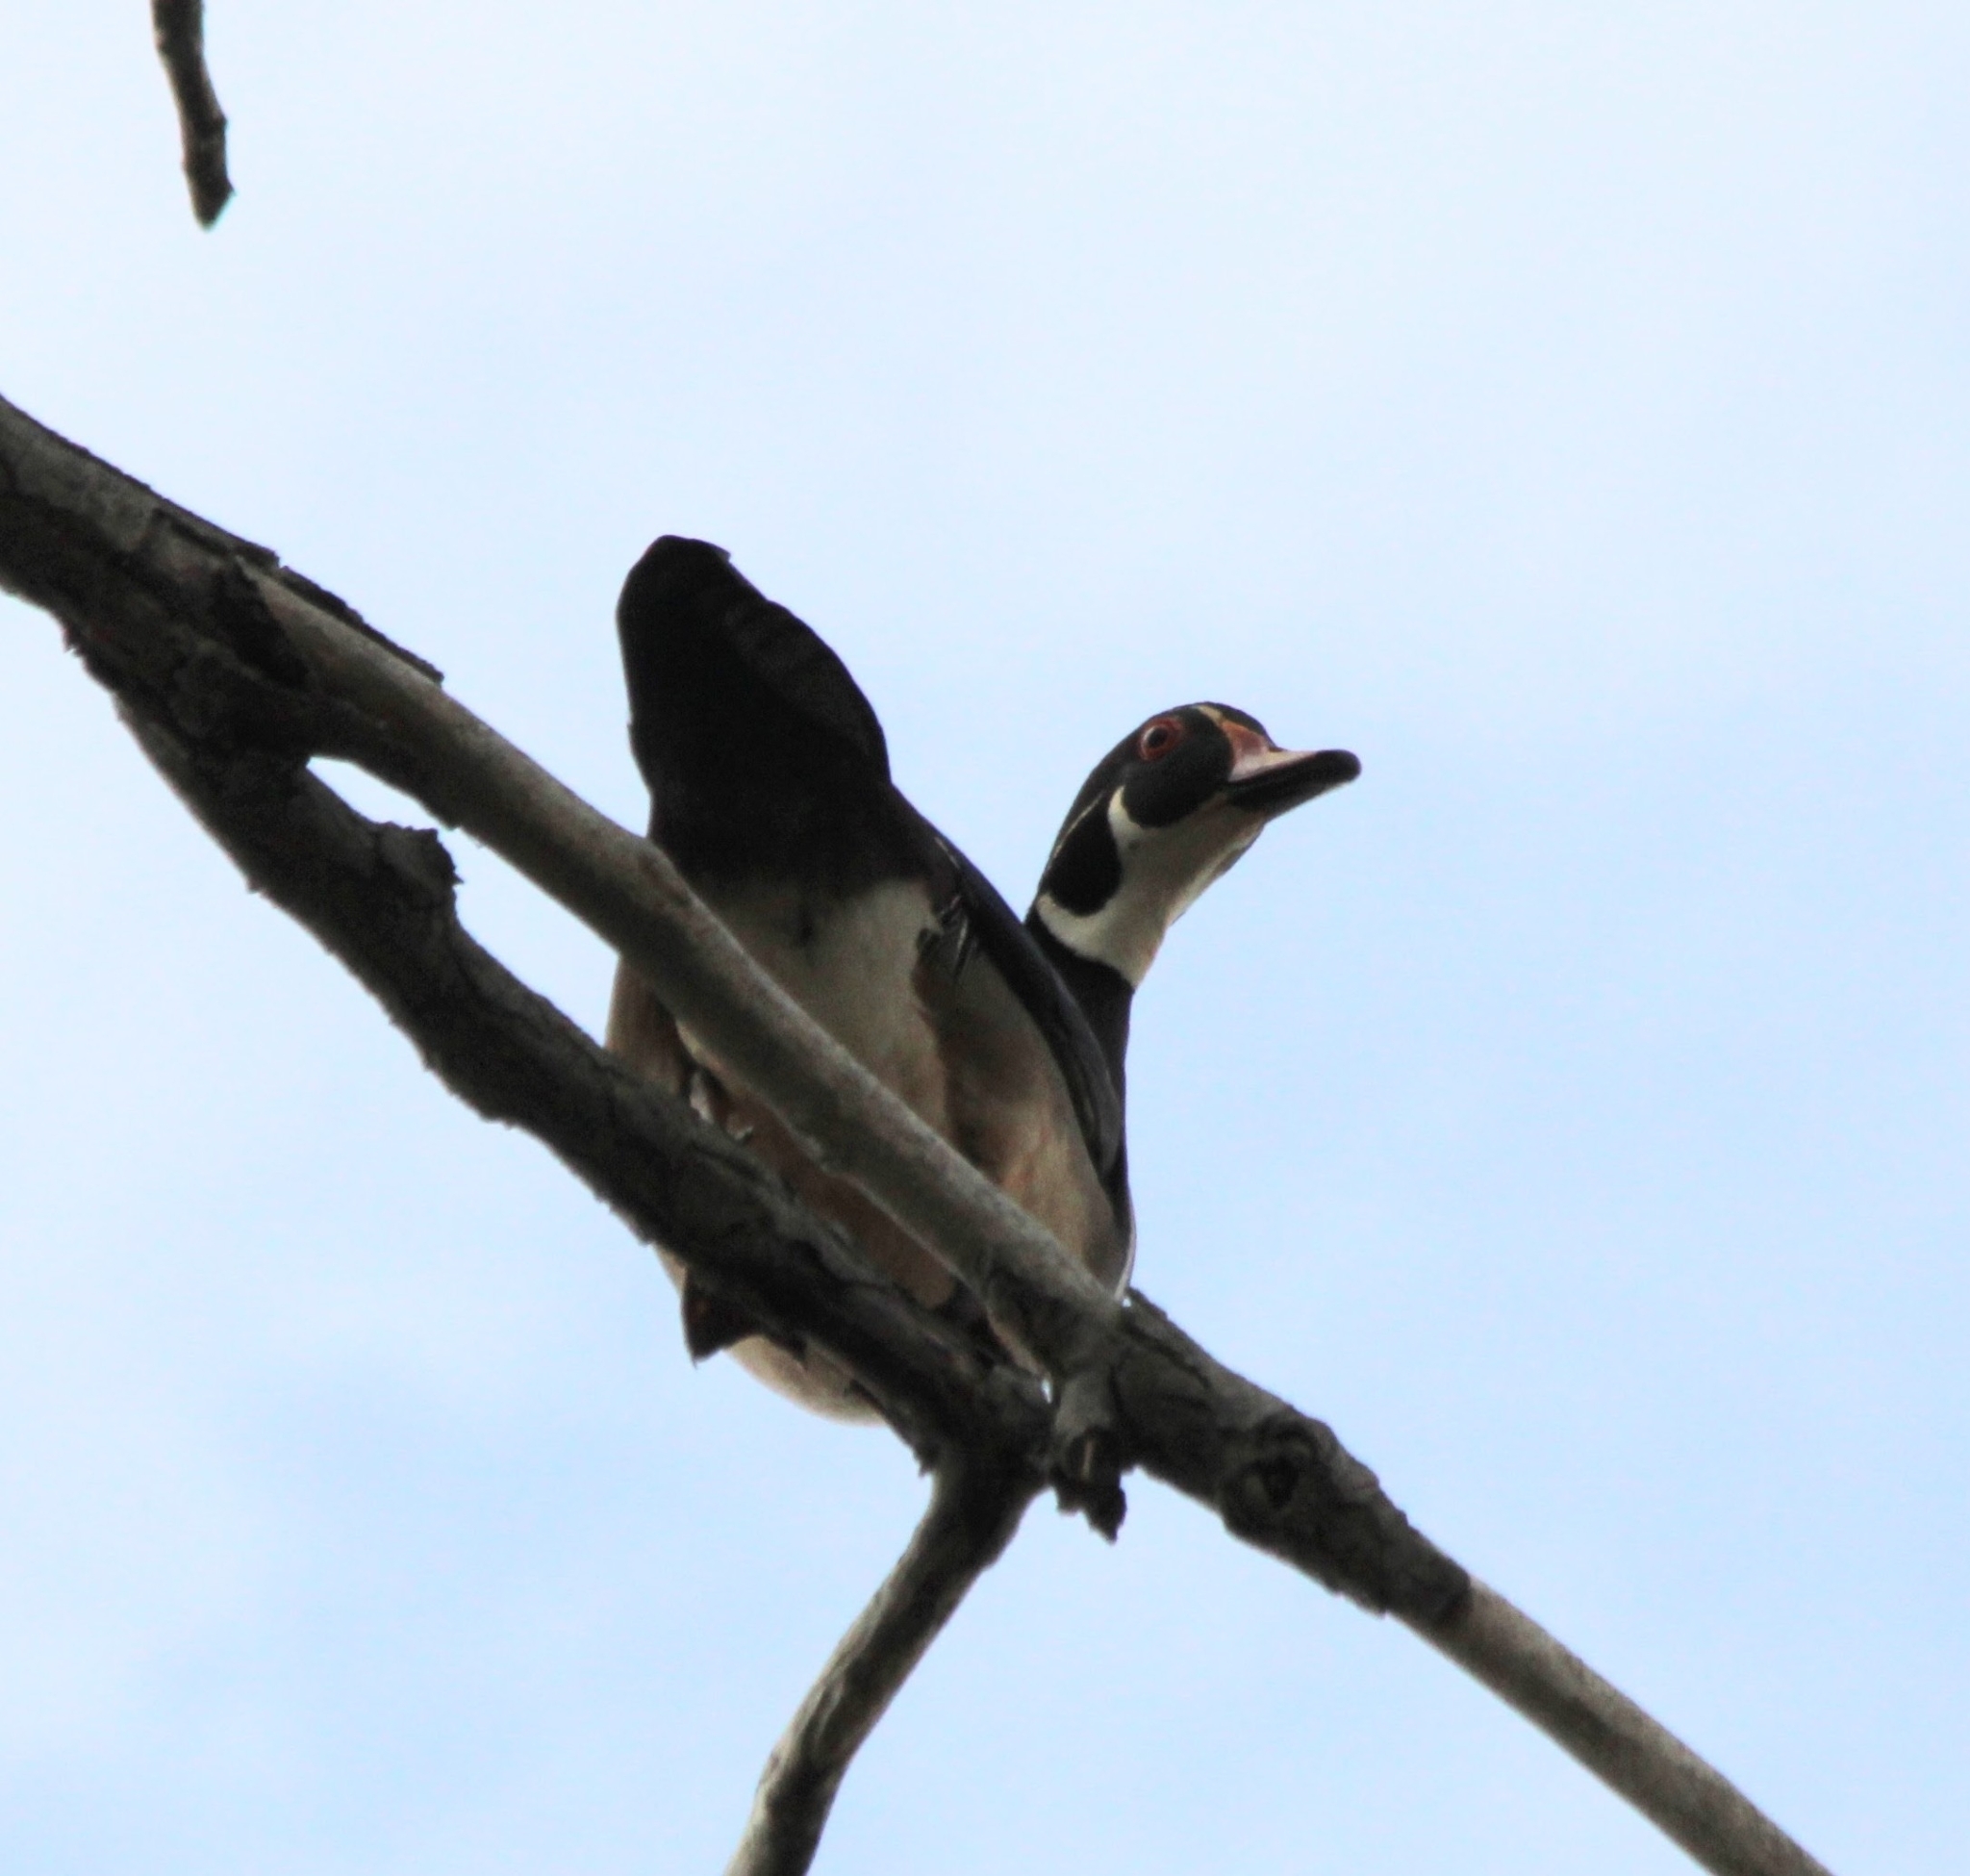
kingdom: Animalia
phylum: Chordata
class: Aves
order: Anseriformes
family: Anatidae
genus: Aix
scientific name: Aix sponsa
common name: Wood duck
